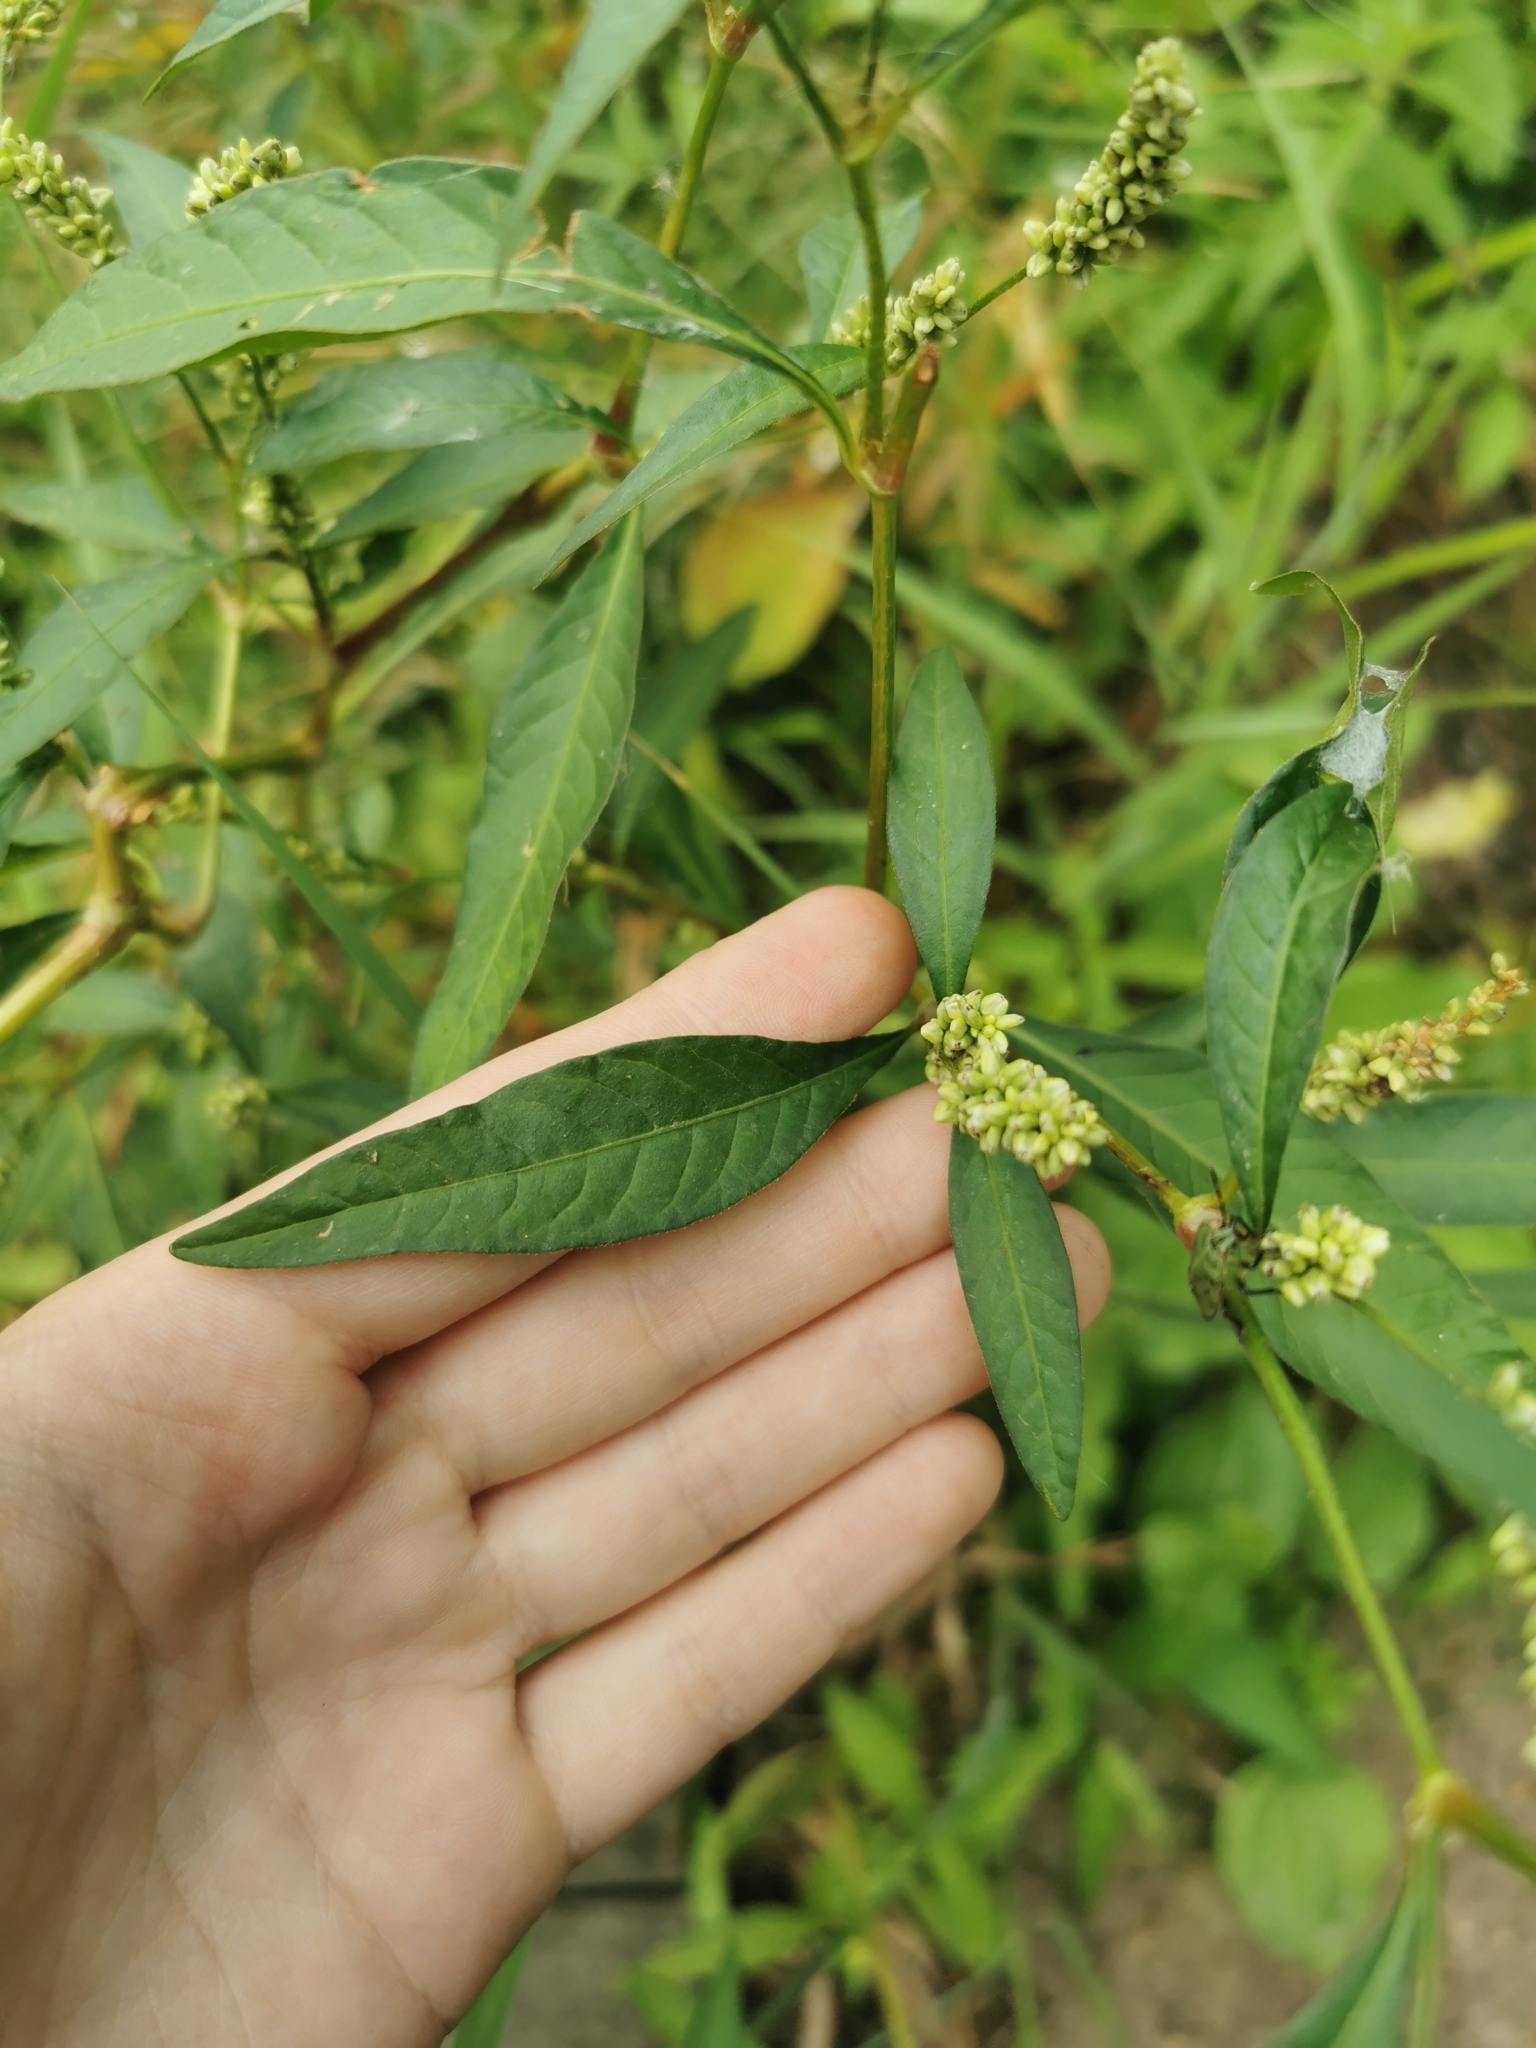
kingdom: Plantae
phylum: Tracheophyta
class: Magnoliopsida
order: Caryophyllales
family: Polygonaceae
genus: Persicaria
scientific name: Persicaria lapathifolia
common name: Curlytop knotweed
